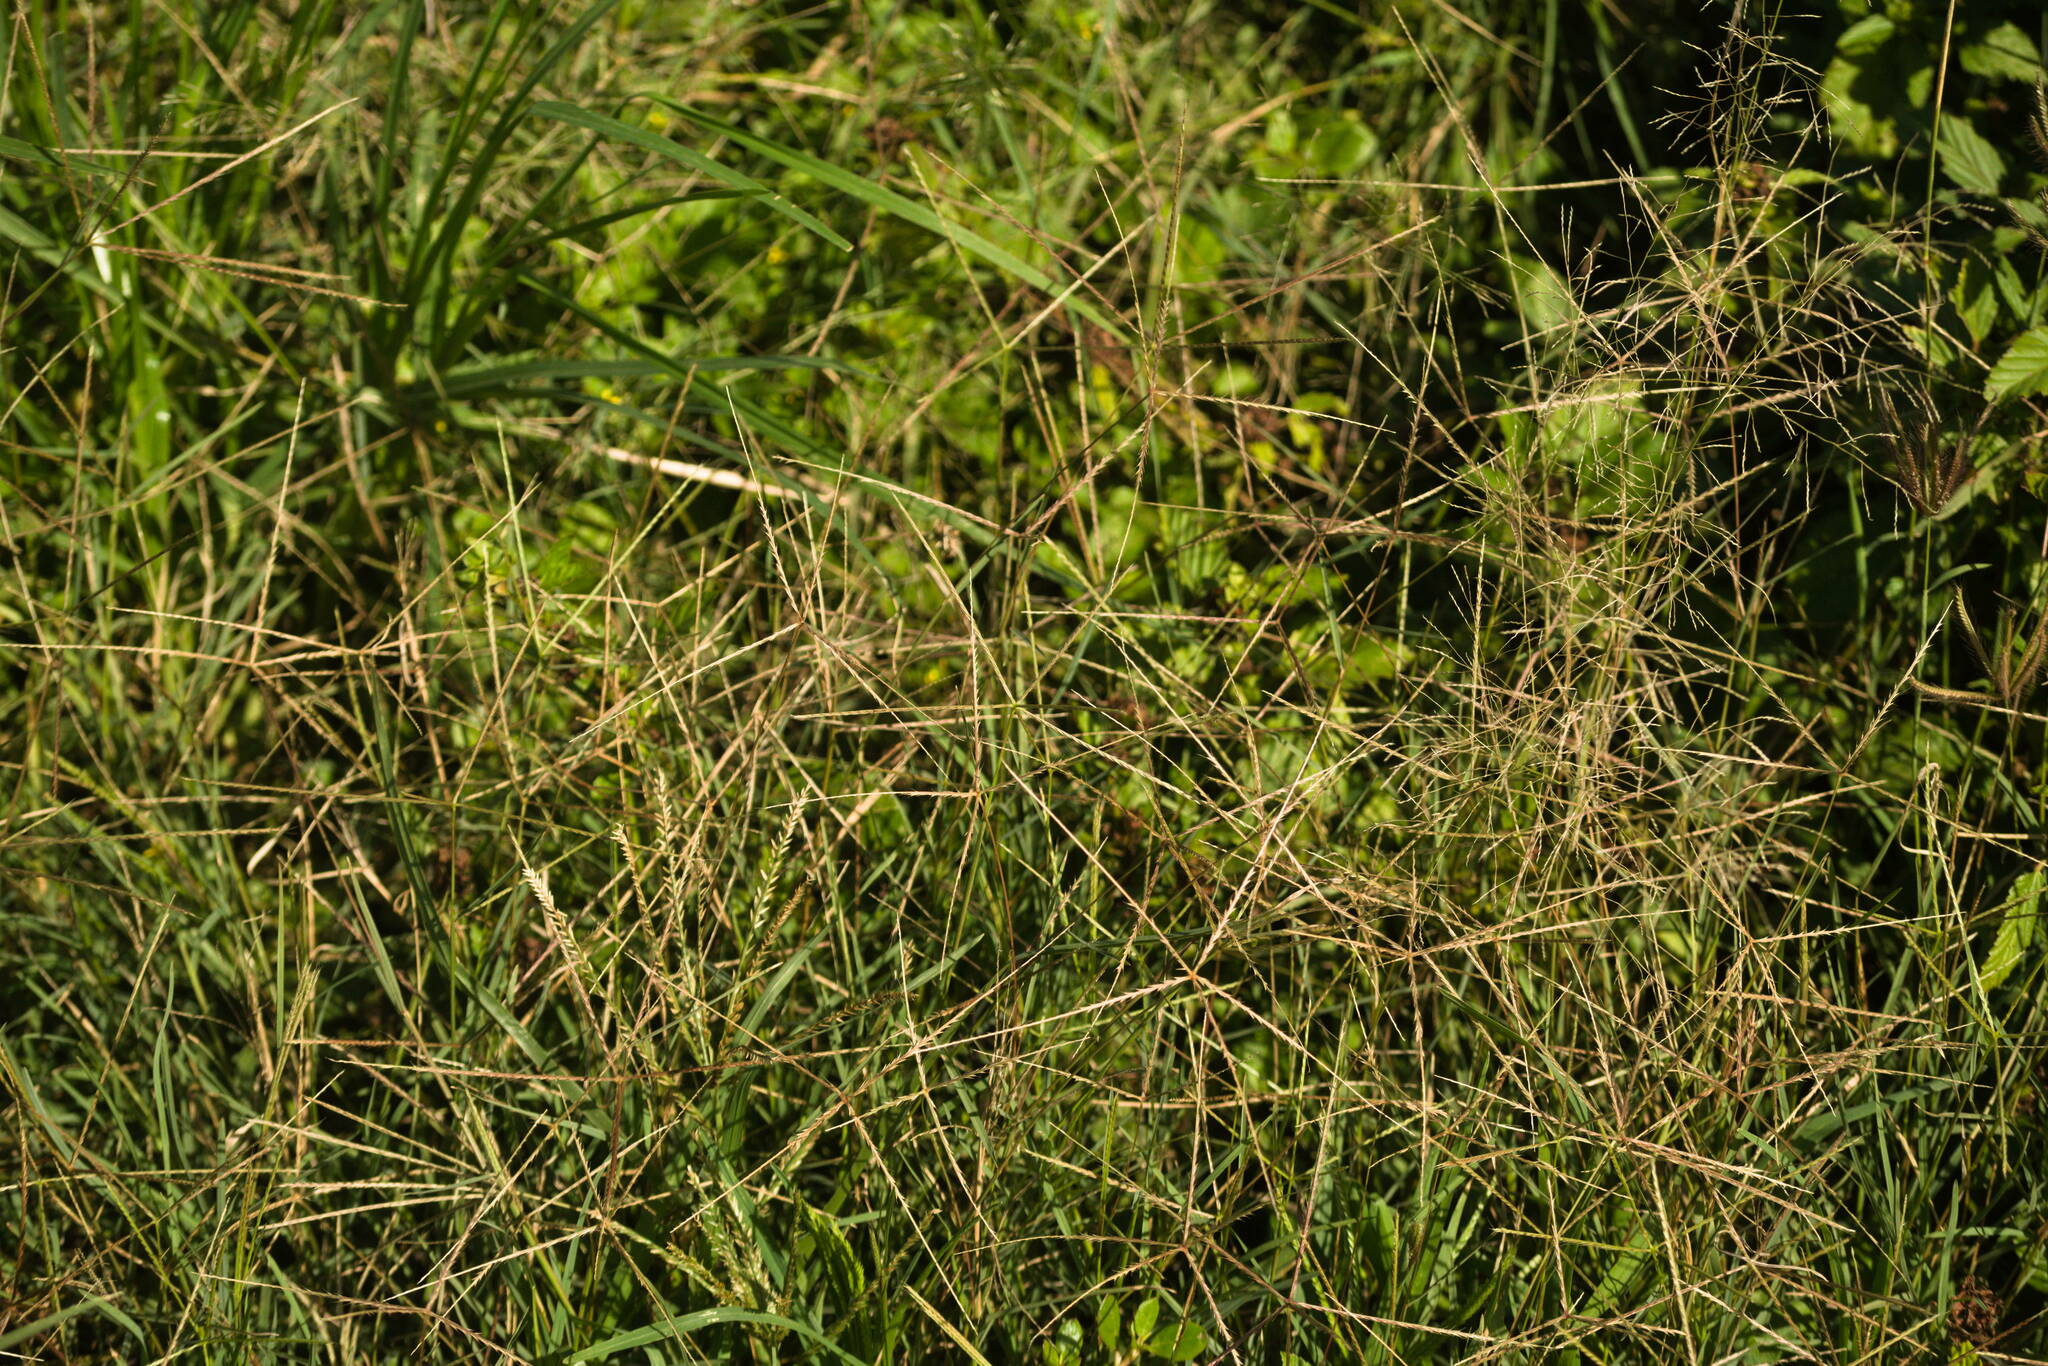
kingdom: Plantae
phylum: Tracheophyta
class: Liliopsida
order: Poales
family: Poaceae
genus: Chloris
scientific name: Chloris divaricata
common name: Spreading windmill grass
